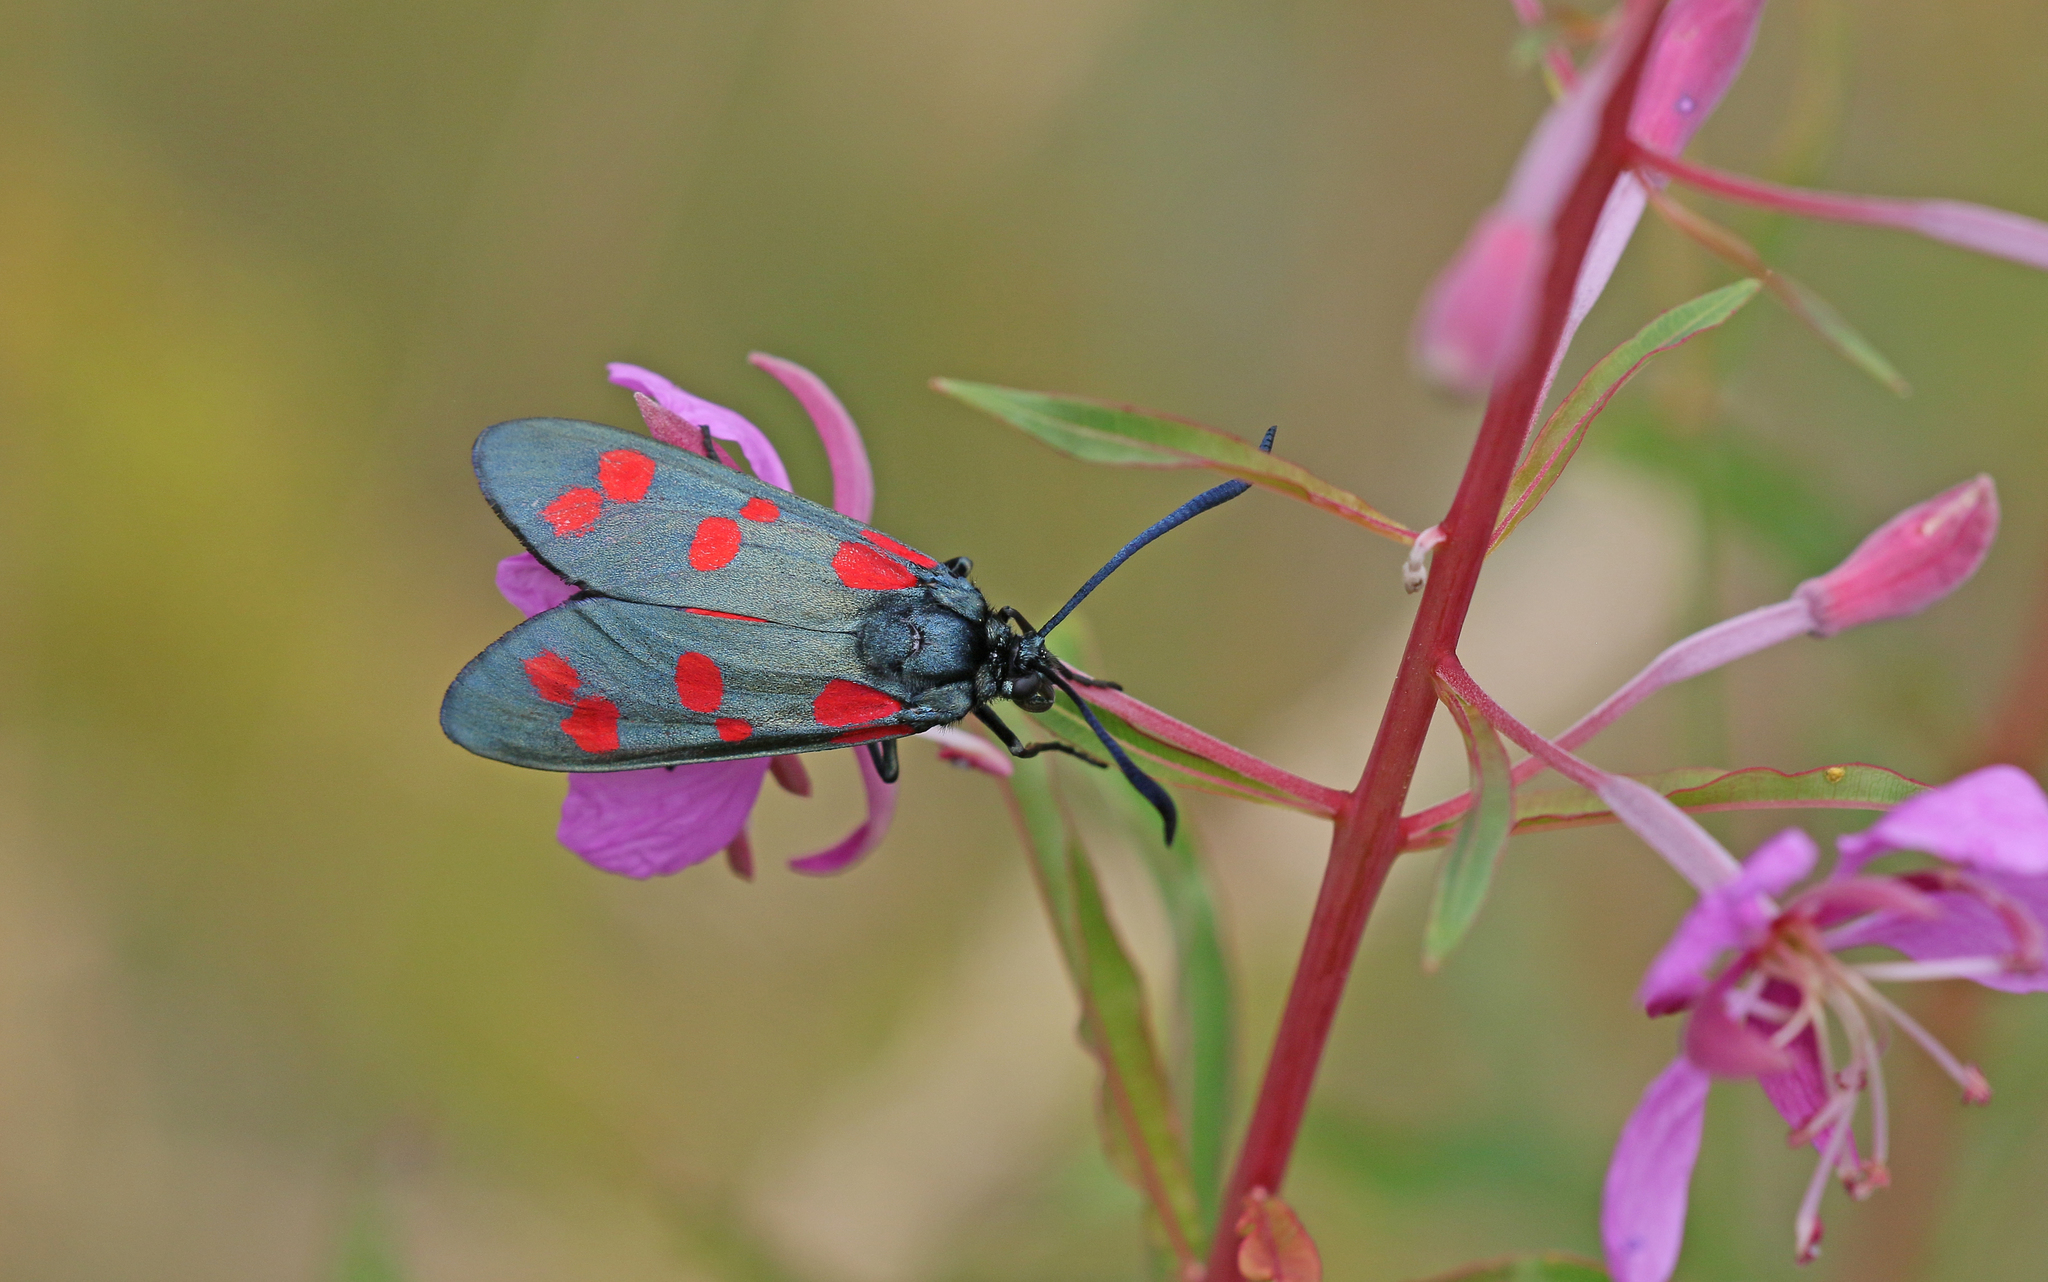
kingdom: Animalia
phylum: Arthropoda
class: Insecta
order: Lepidoptera
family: Zygaenidae
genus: Zygaena
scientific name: Zygaena filipendulae
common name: Six-spot burnet
